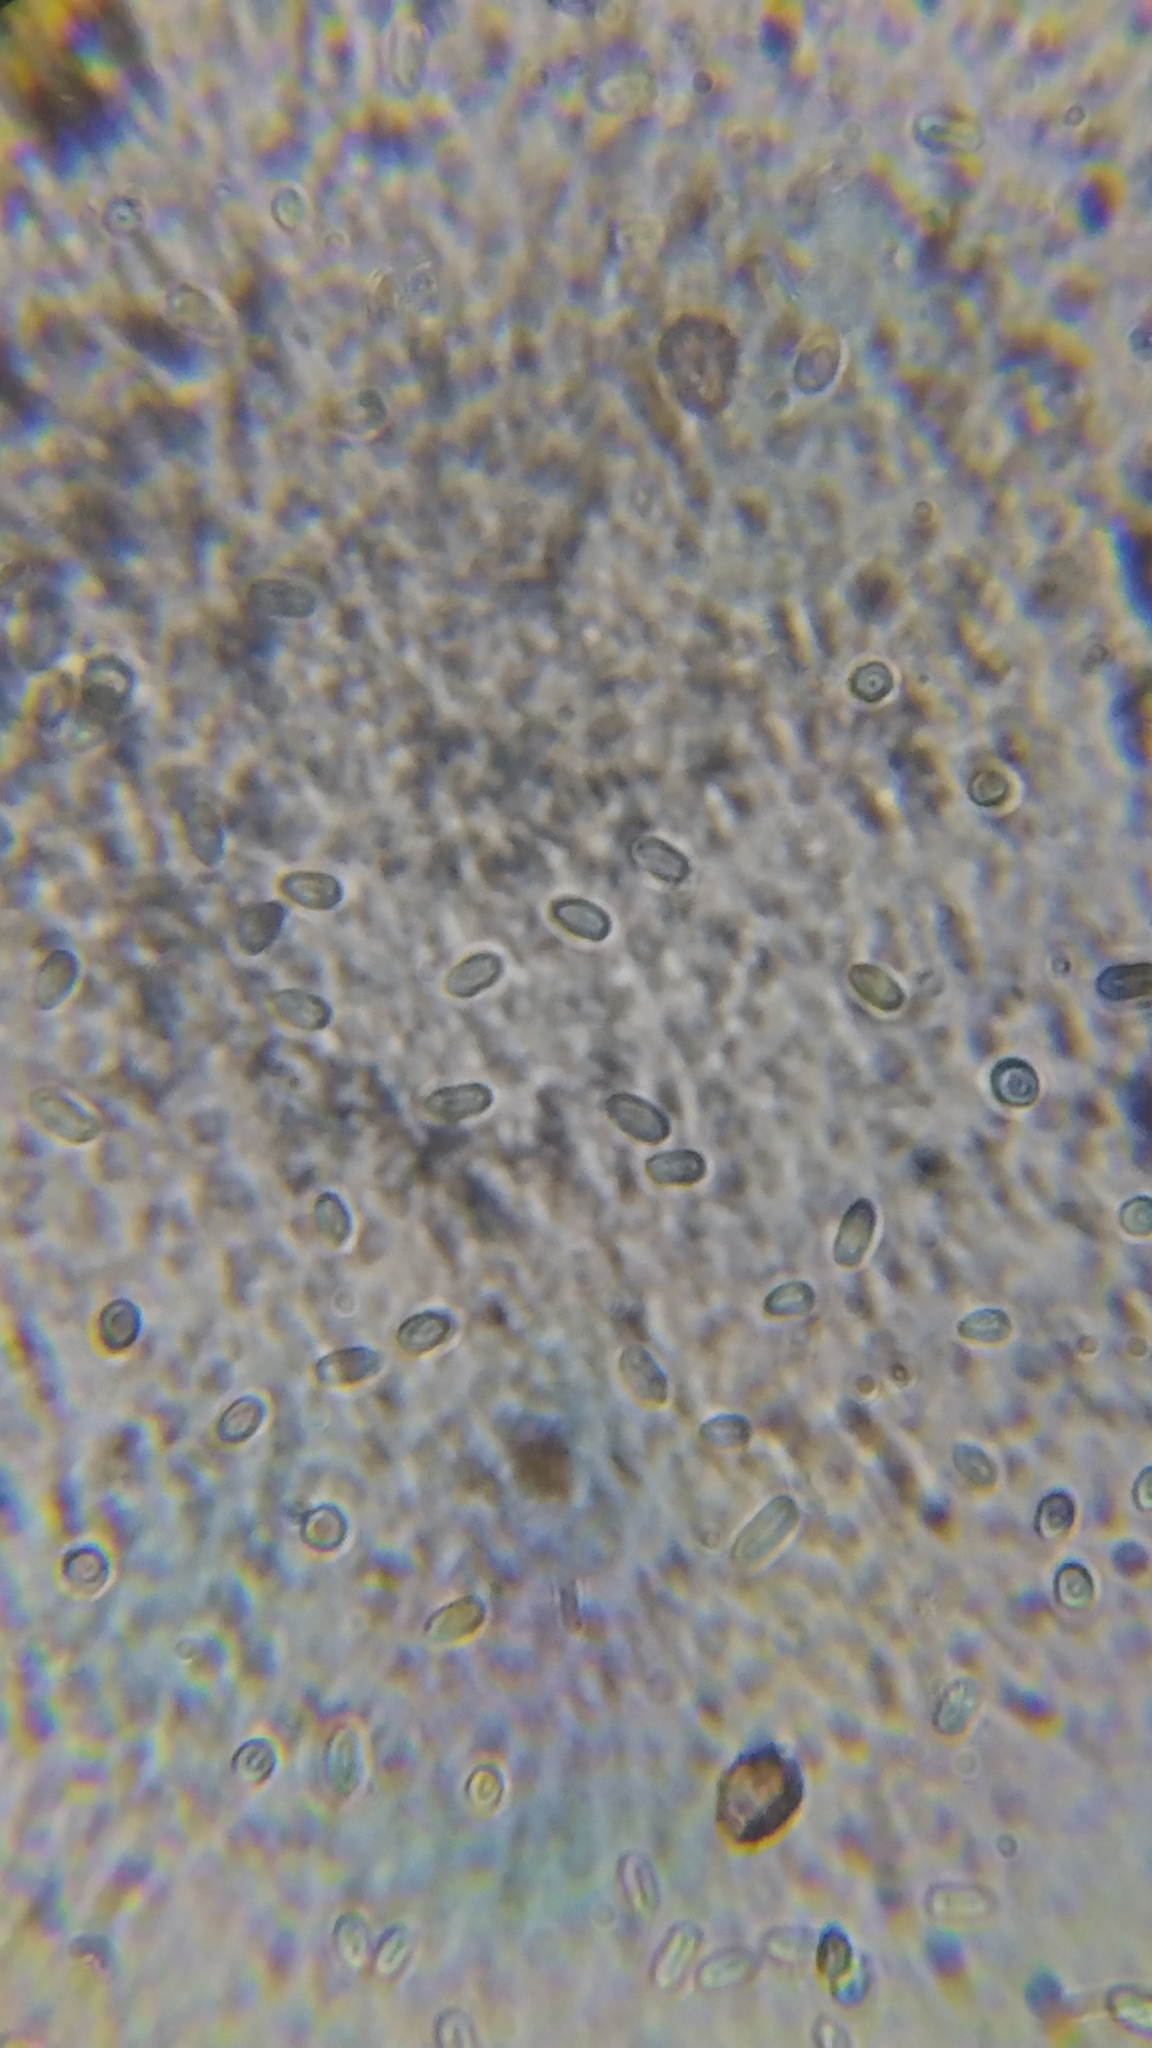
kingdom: Fungi
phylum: Basidiomycota
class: Agaricomycetes
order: Polyporales
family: Meruliaceae
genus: Mycoacia
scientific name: Mycoacia fuscoatra
